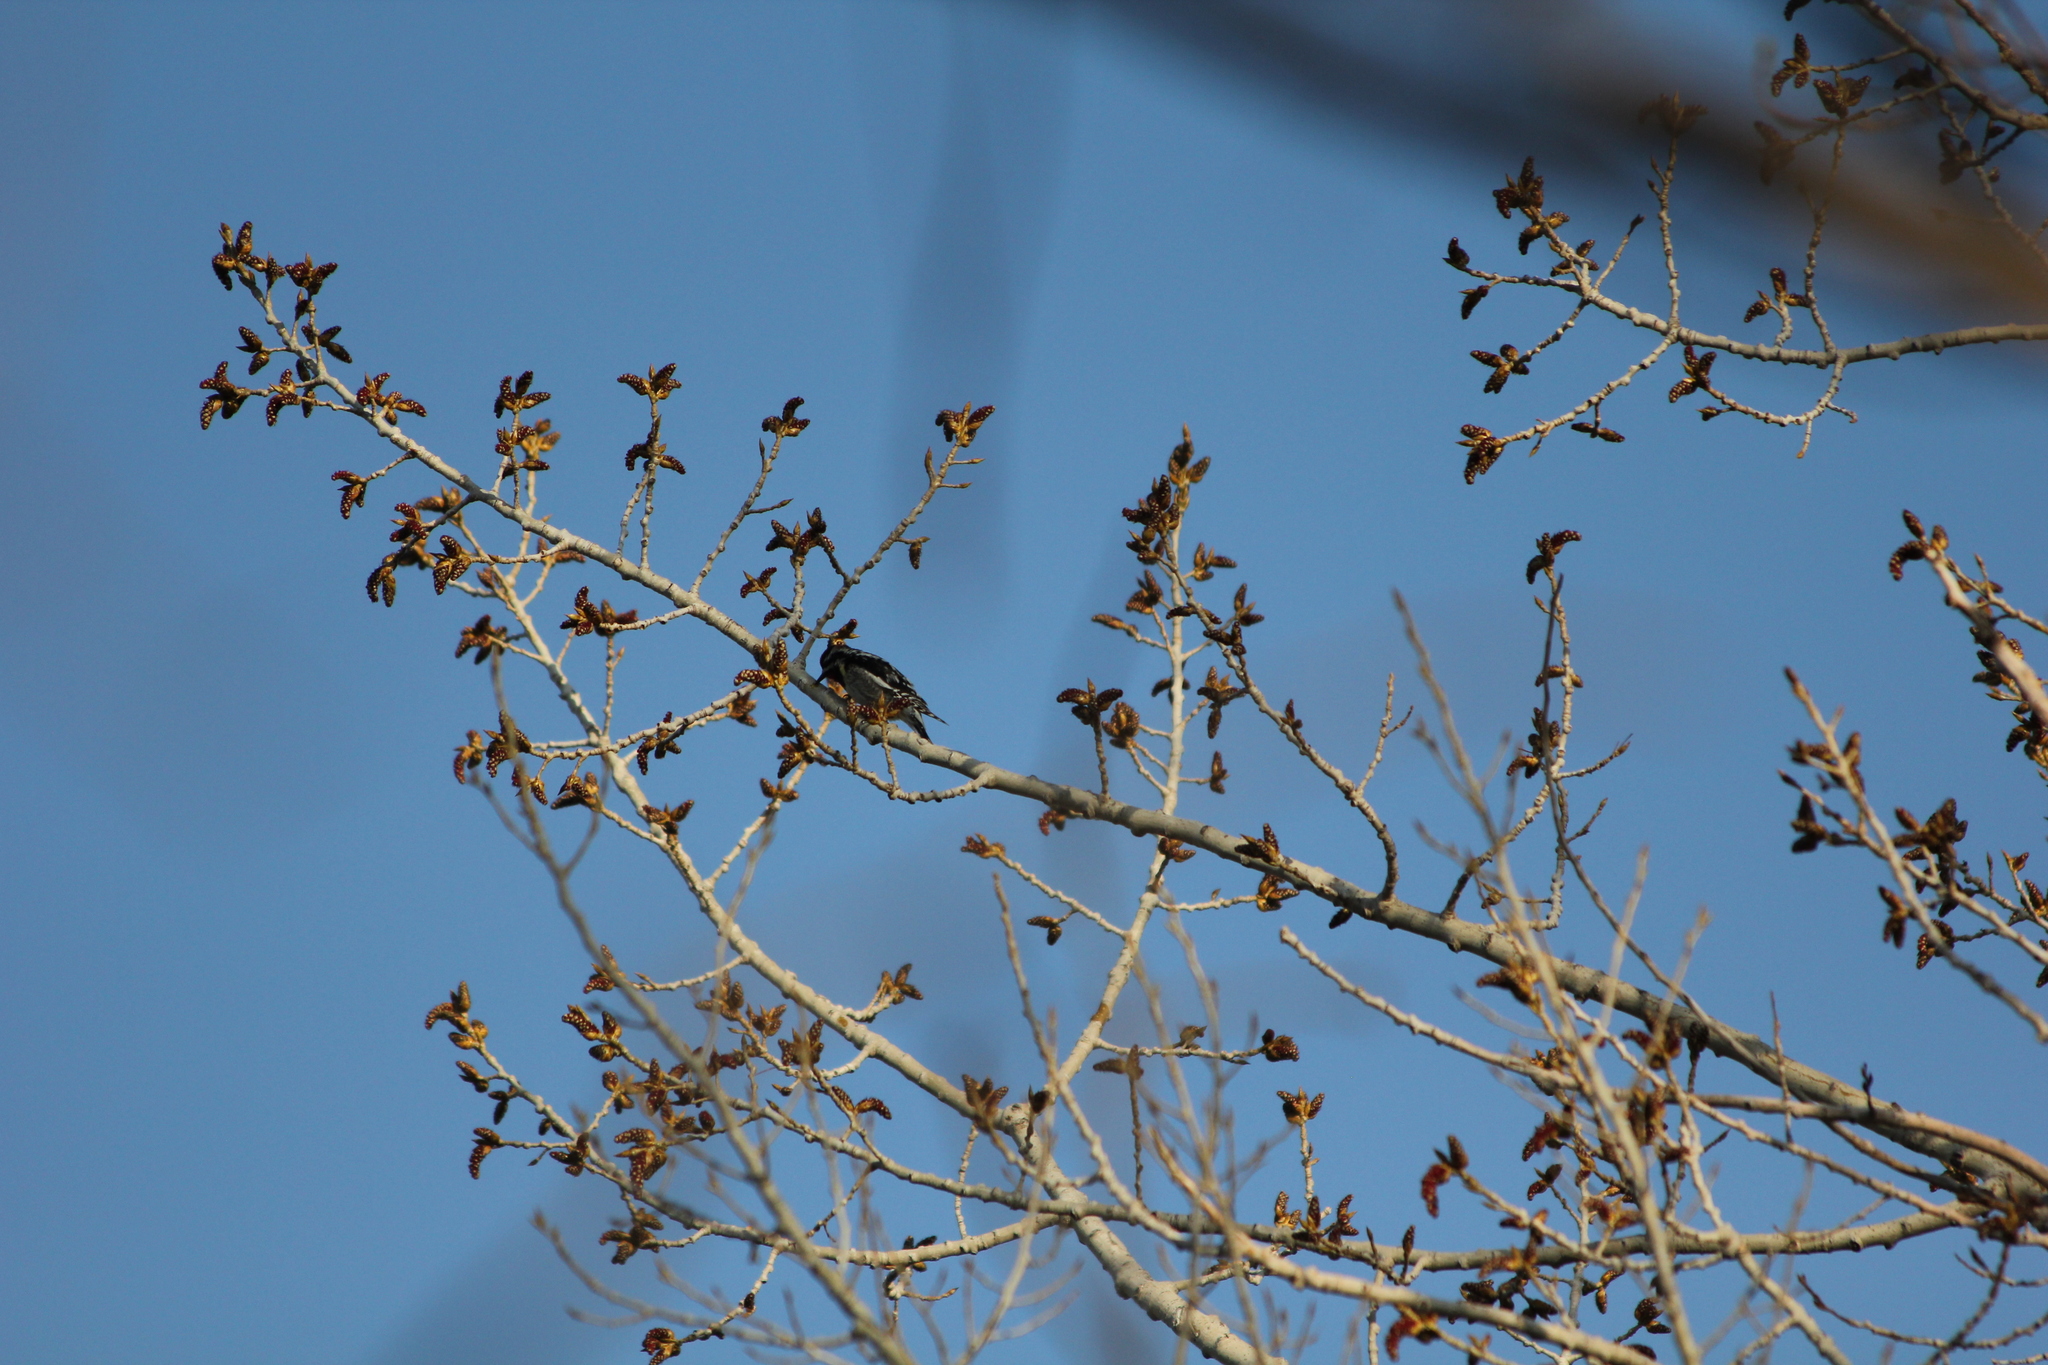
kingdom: Animalia
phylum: Chordata
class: Aves
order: Piciformes
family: Picidae
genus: Sphyrapicus
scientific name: Sphyrapicus varius
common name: Yellow-bellied sapsucker
